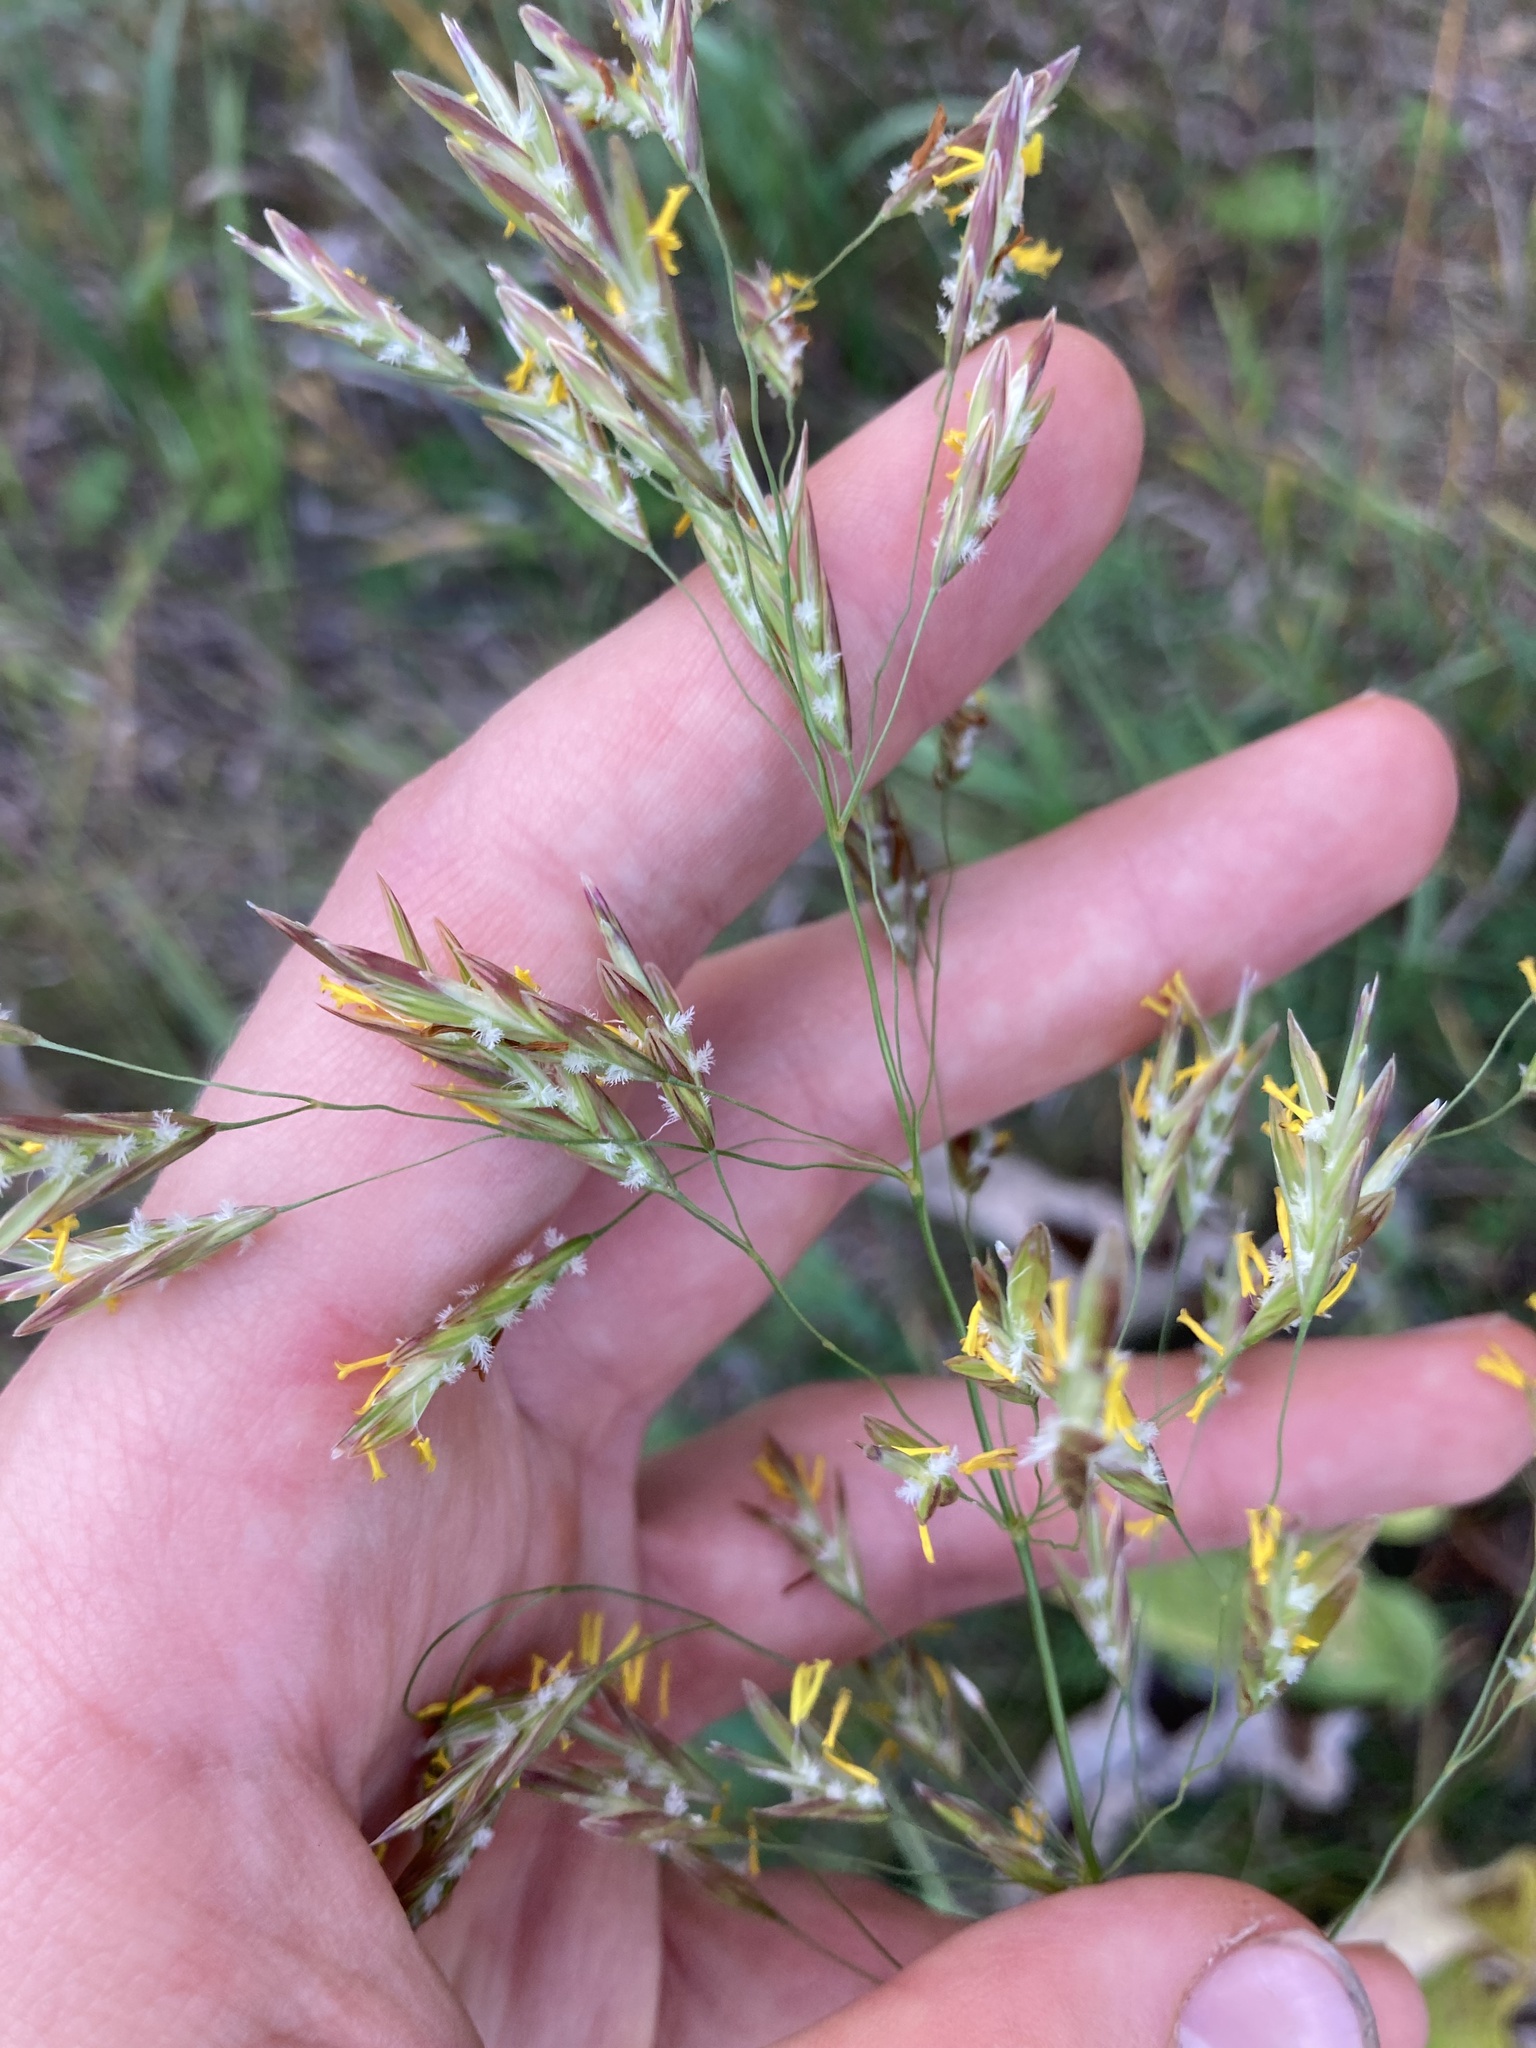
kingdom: Plantae
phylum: Tracheophyta
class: Liliopsida
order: Poales
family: Poaceae
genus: Bromus
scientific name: Bromus inermis
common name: Smooth brome
